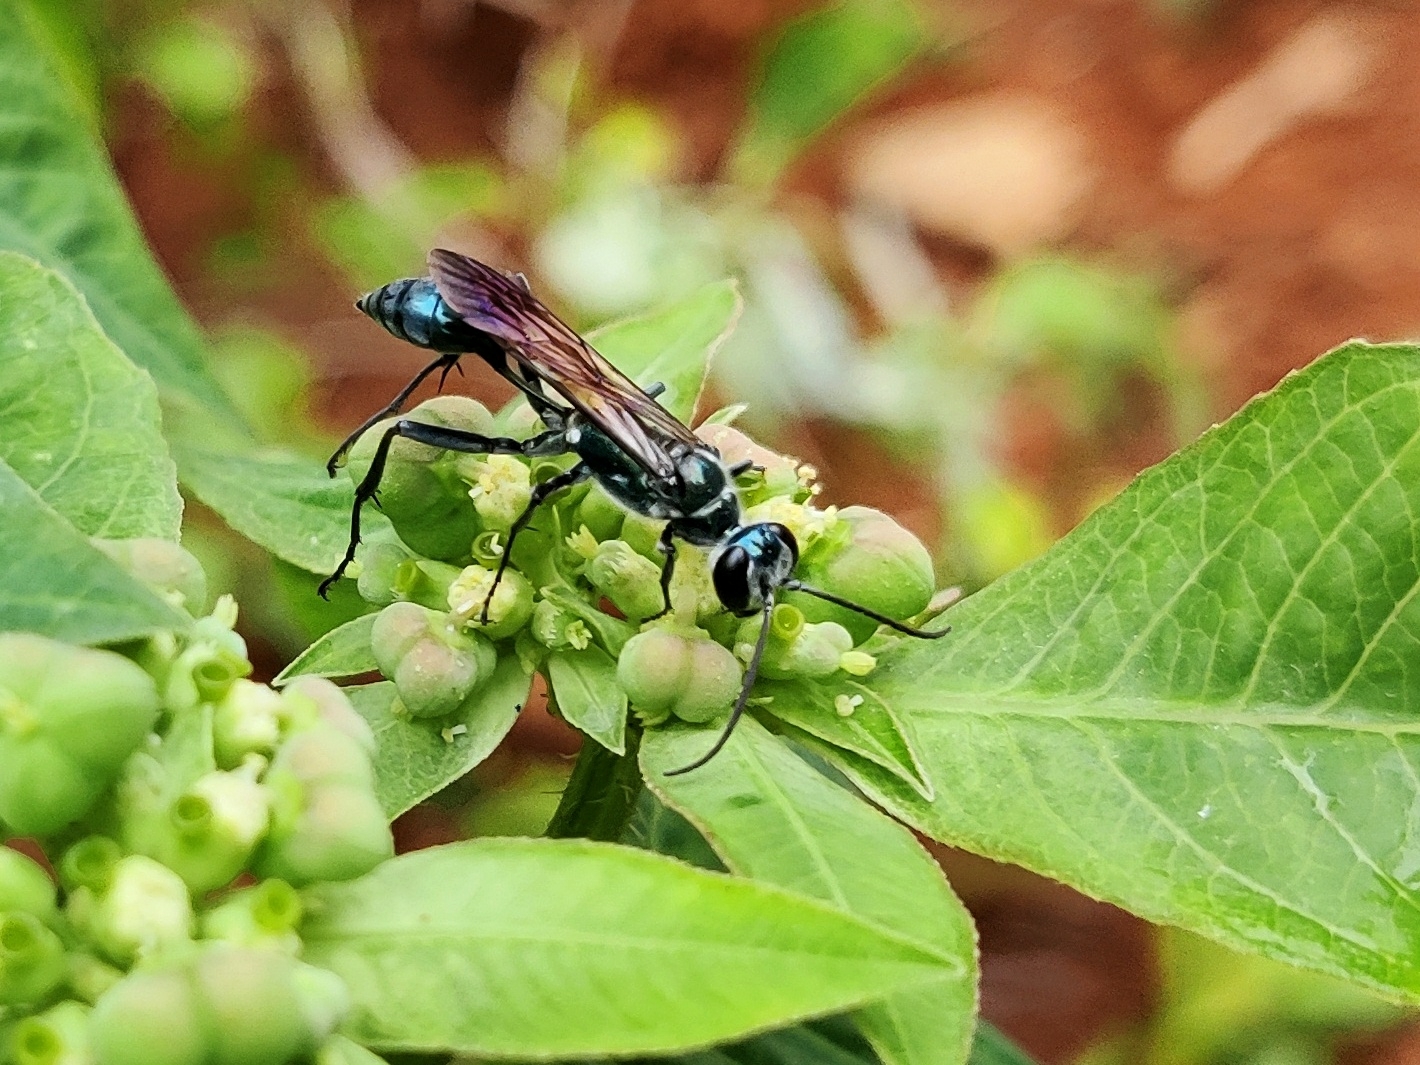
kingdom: Animalia
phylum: Arthropoda
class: Insecta
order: Hymenoptera
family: Sphecidae
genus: Chalybion
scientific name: Chalybion bengalense
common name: Mud dauber
